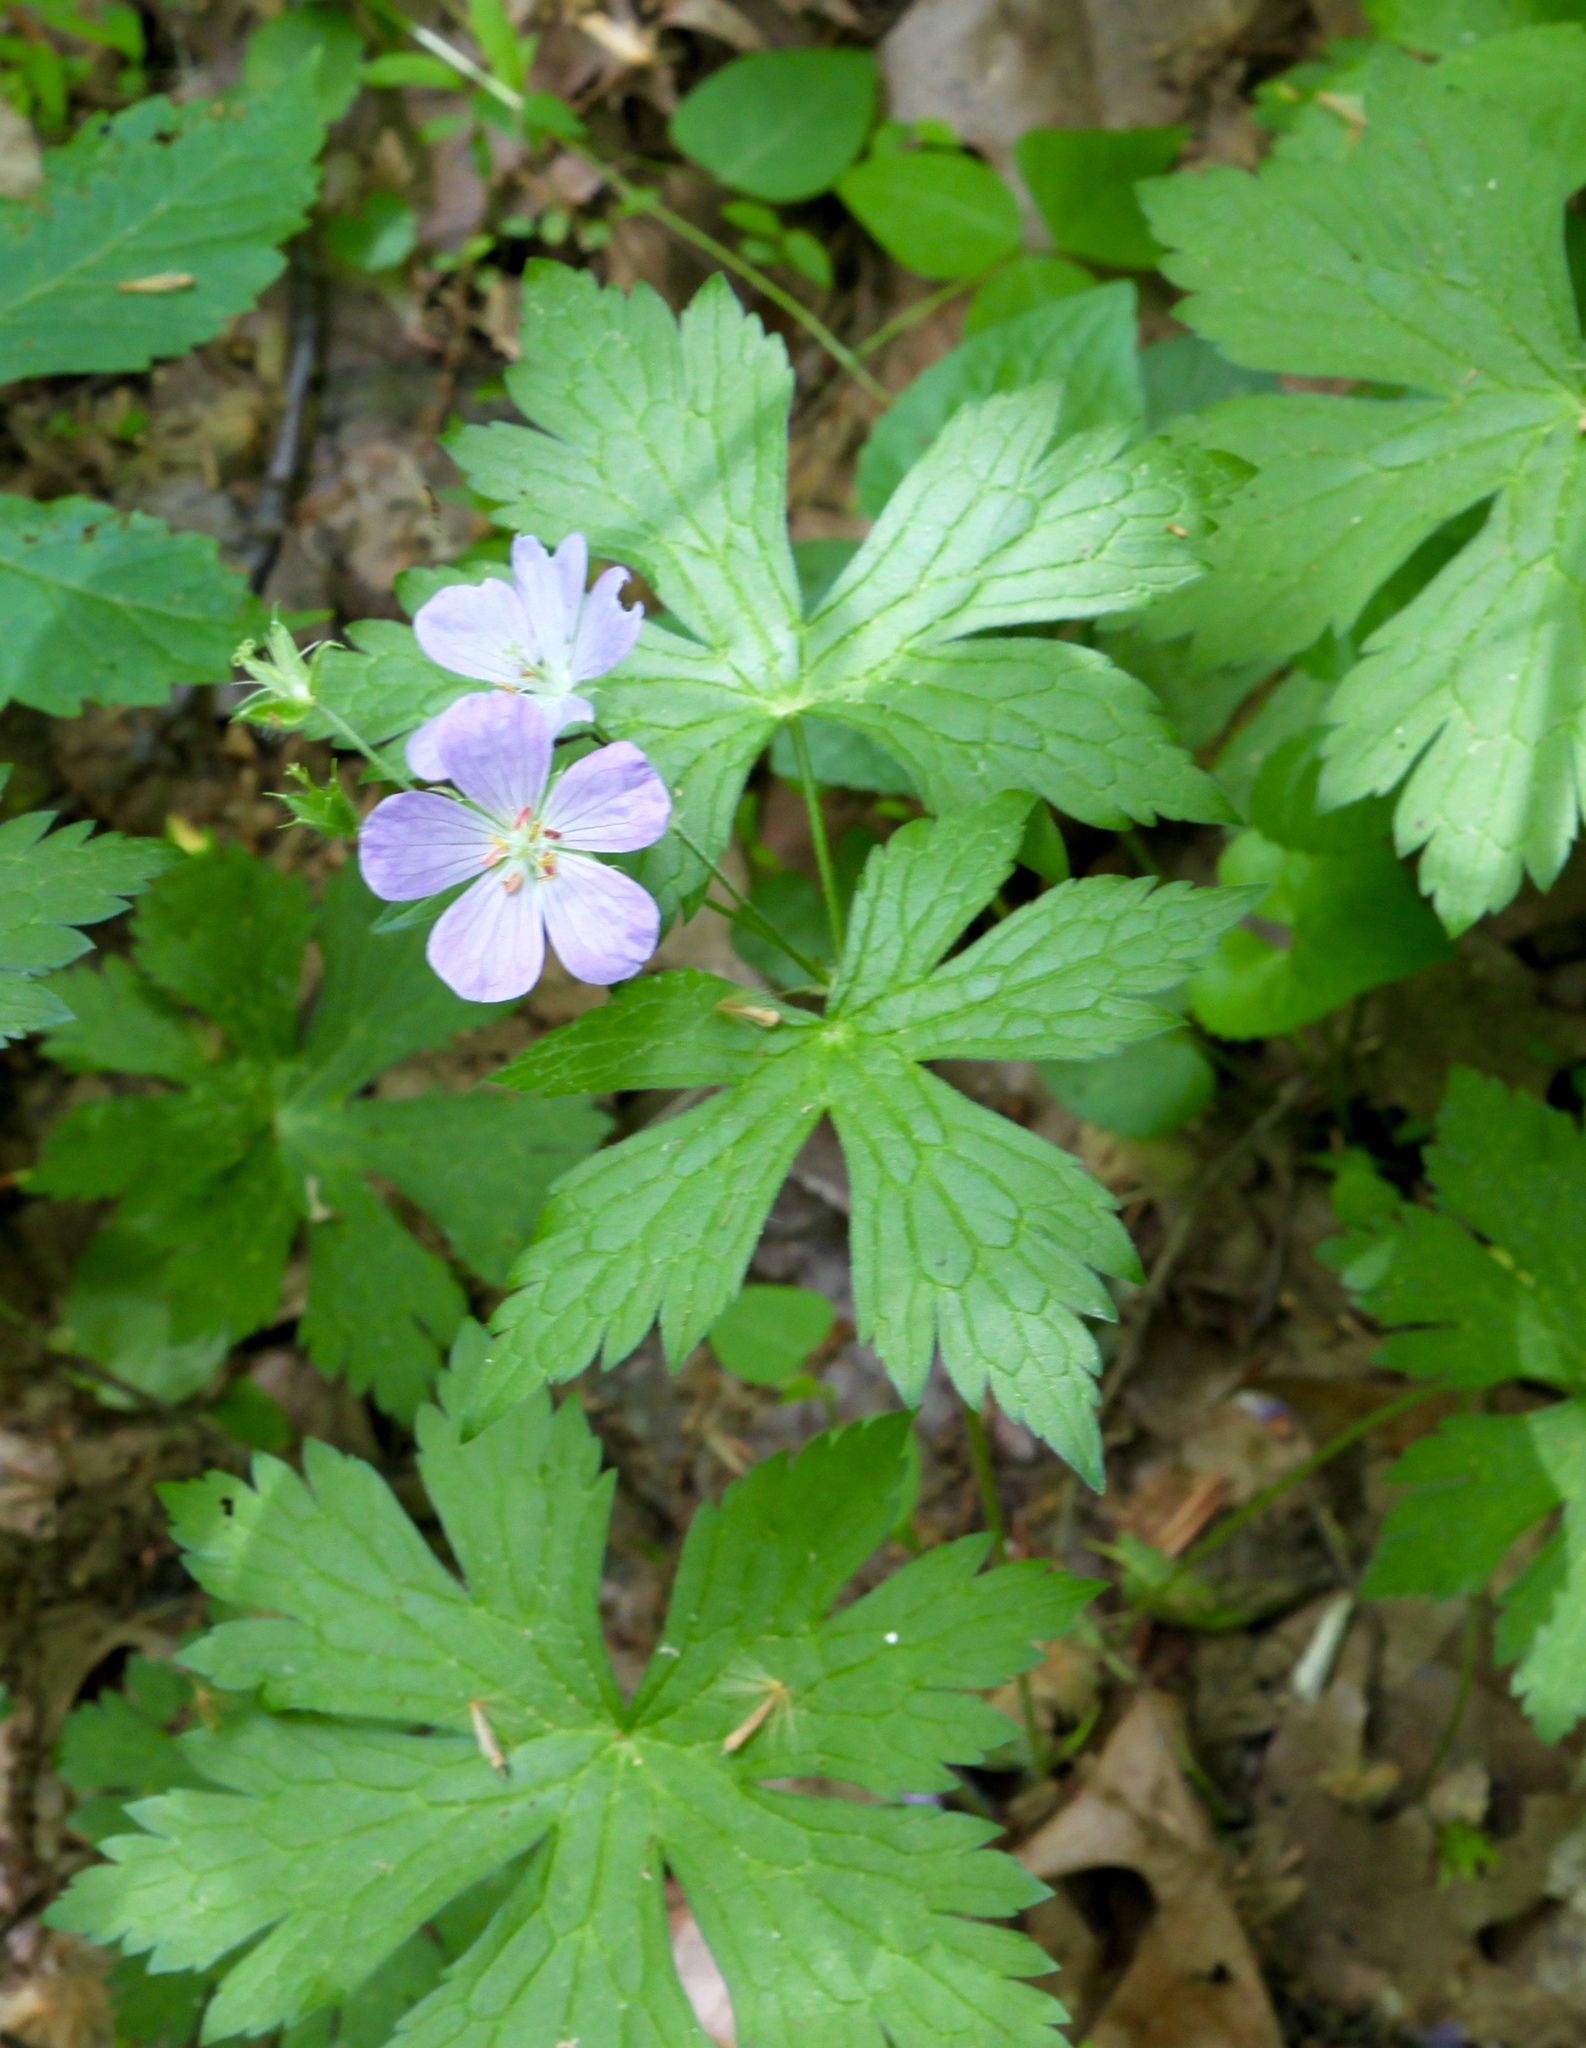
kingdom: Plantae
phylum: Tracheophyta
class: Magnoliopsida
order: Geraniales
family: Geraniaceae
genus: Geranium
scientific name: Geranium maculatum
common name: Spotted geranium
